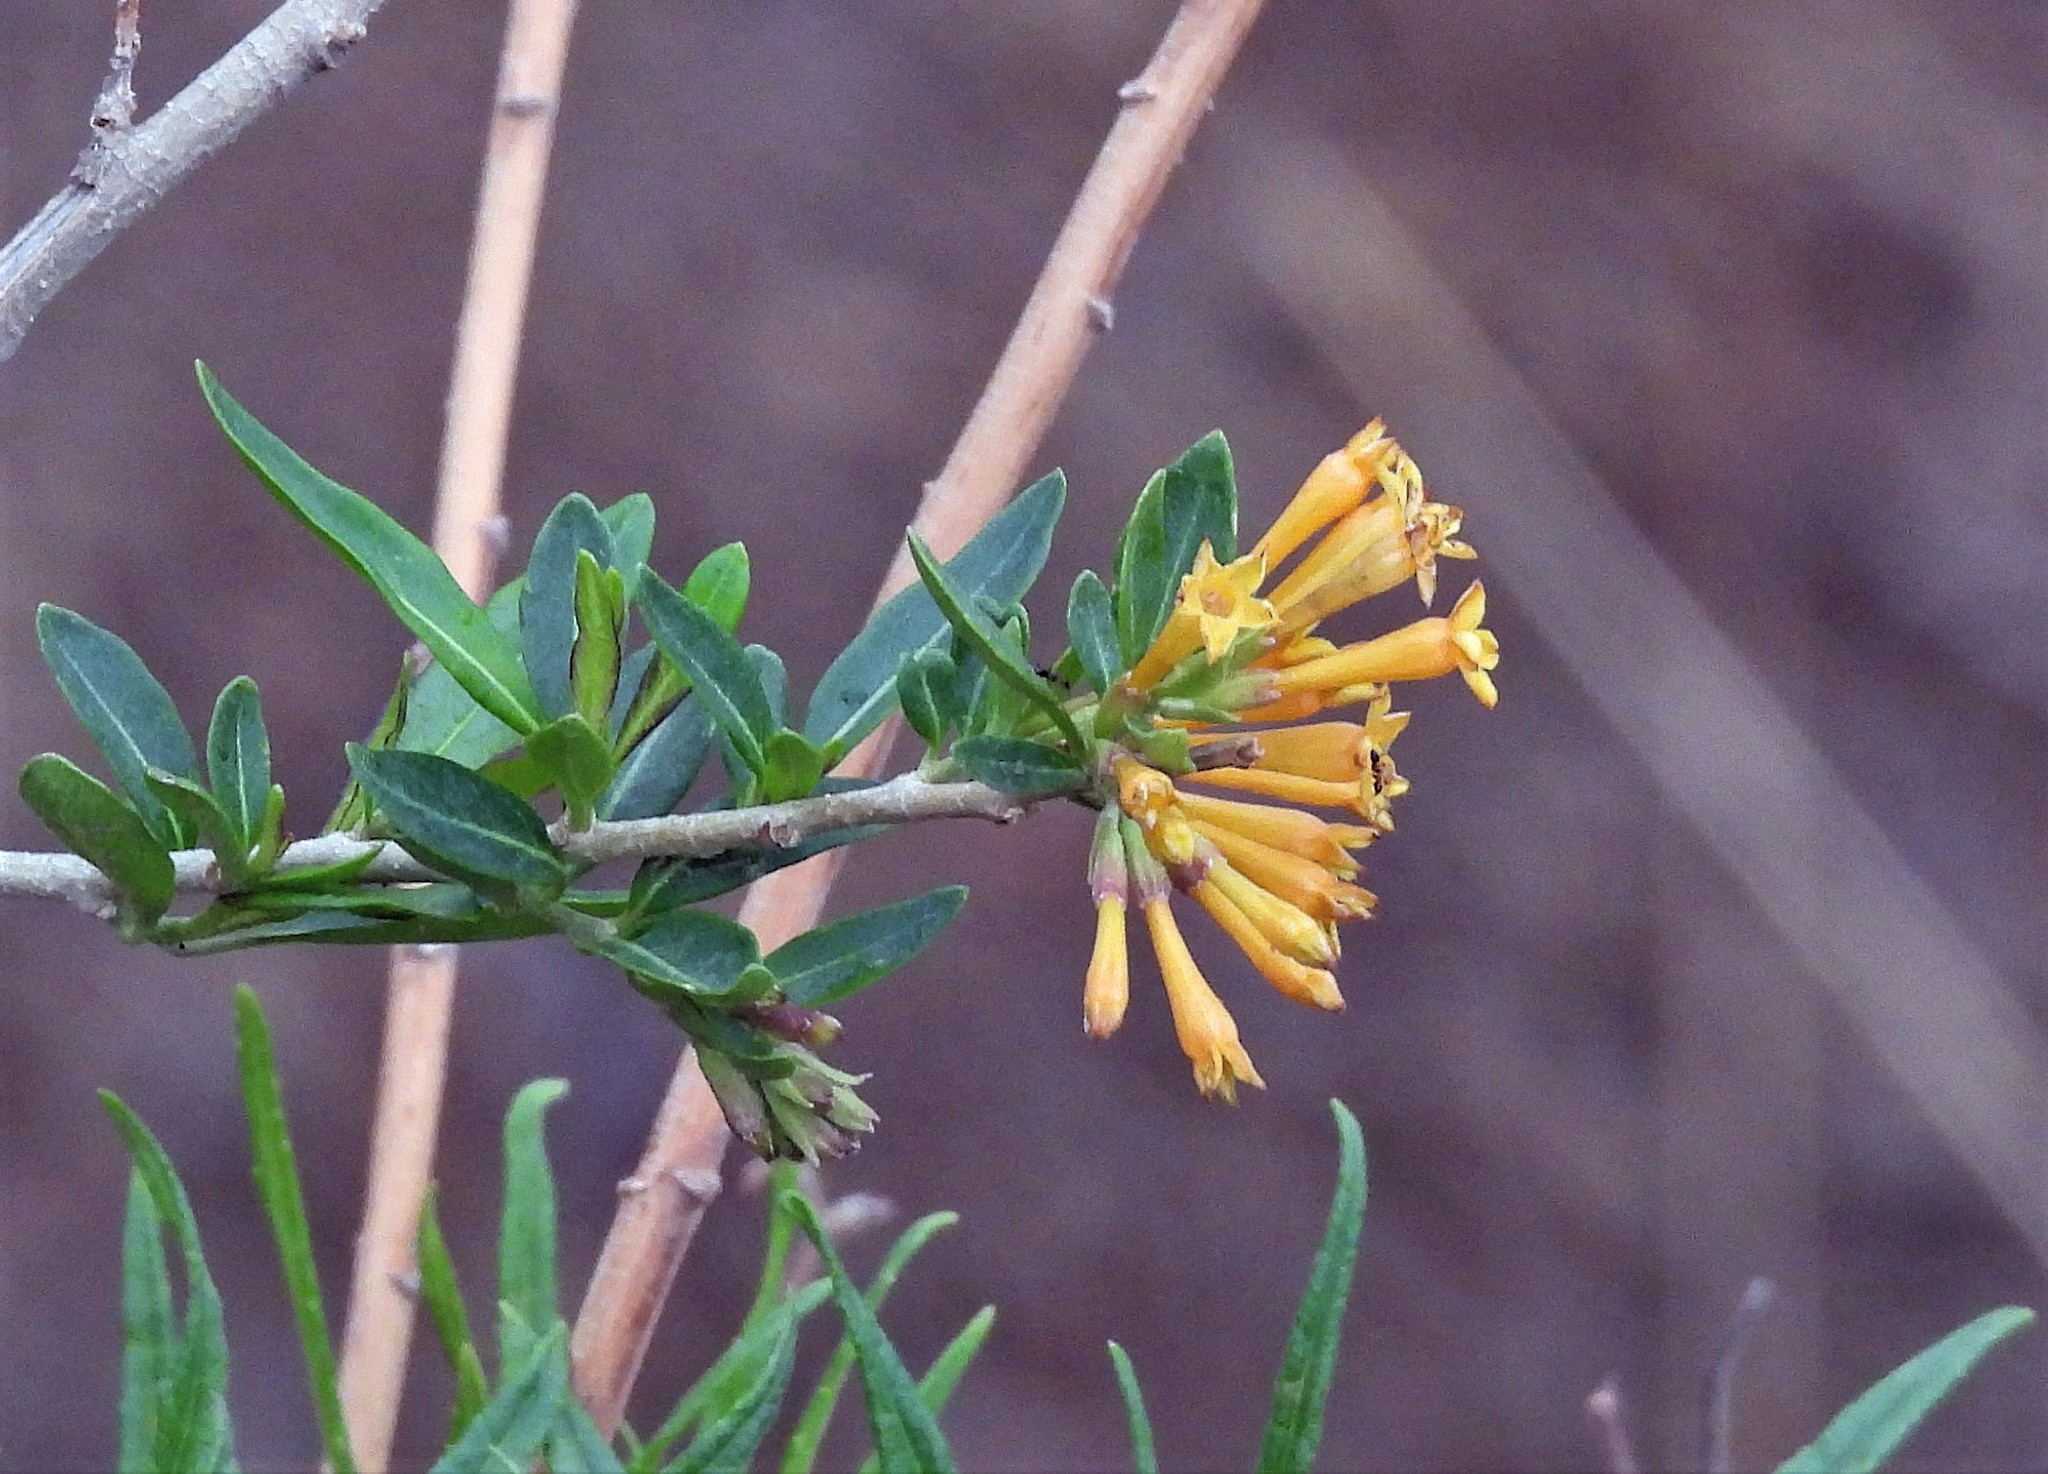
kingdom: Plantae
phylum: Tracheophyta
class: Magnoliopsida
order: Solanales
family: Solanaceae
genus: Cestrum
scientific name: Cestrum parqui
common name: Chilean cestrum
